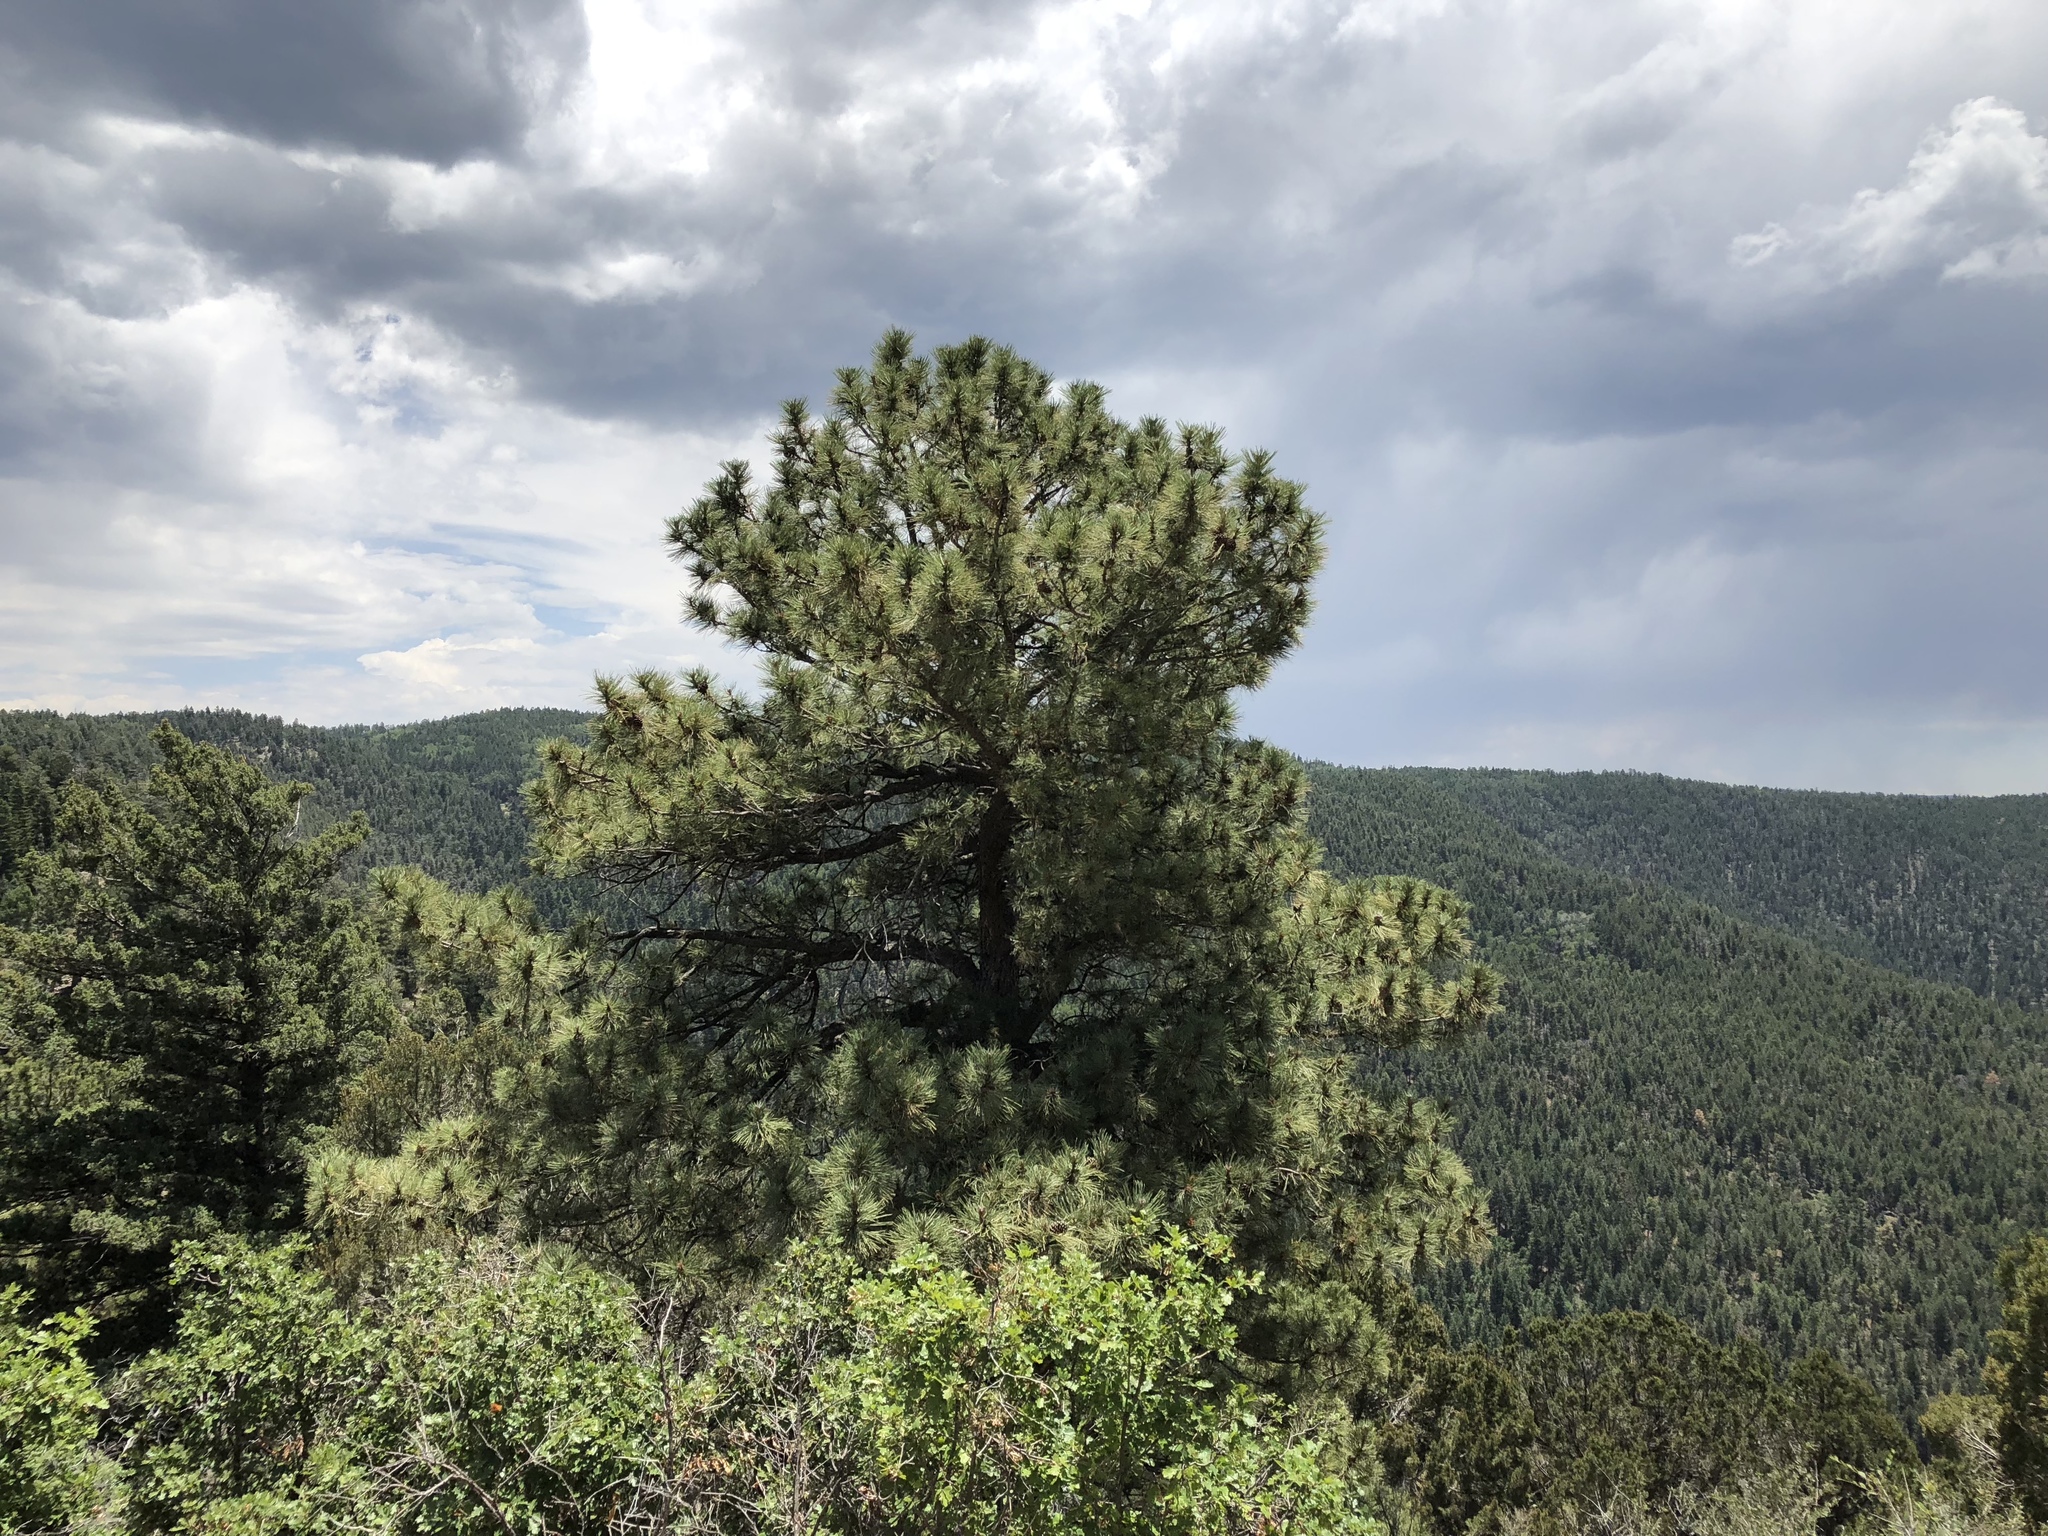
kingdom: Plantae
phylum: Tracheophyta
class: Pinopsida
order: Pinales
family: Pinaceae
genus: Pinus
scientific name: Pinus ponderosa
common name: Western yellow-pine
